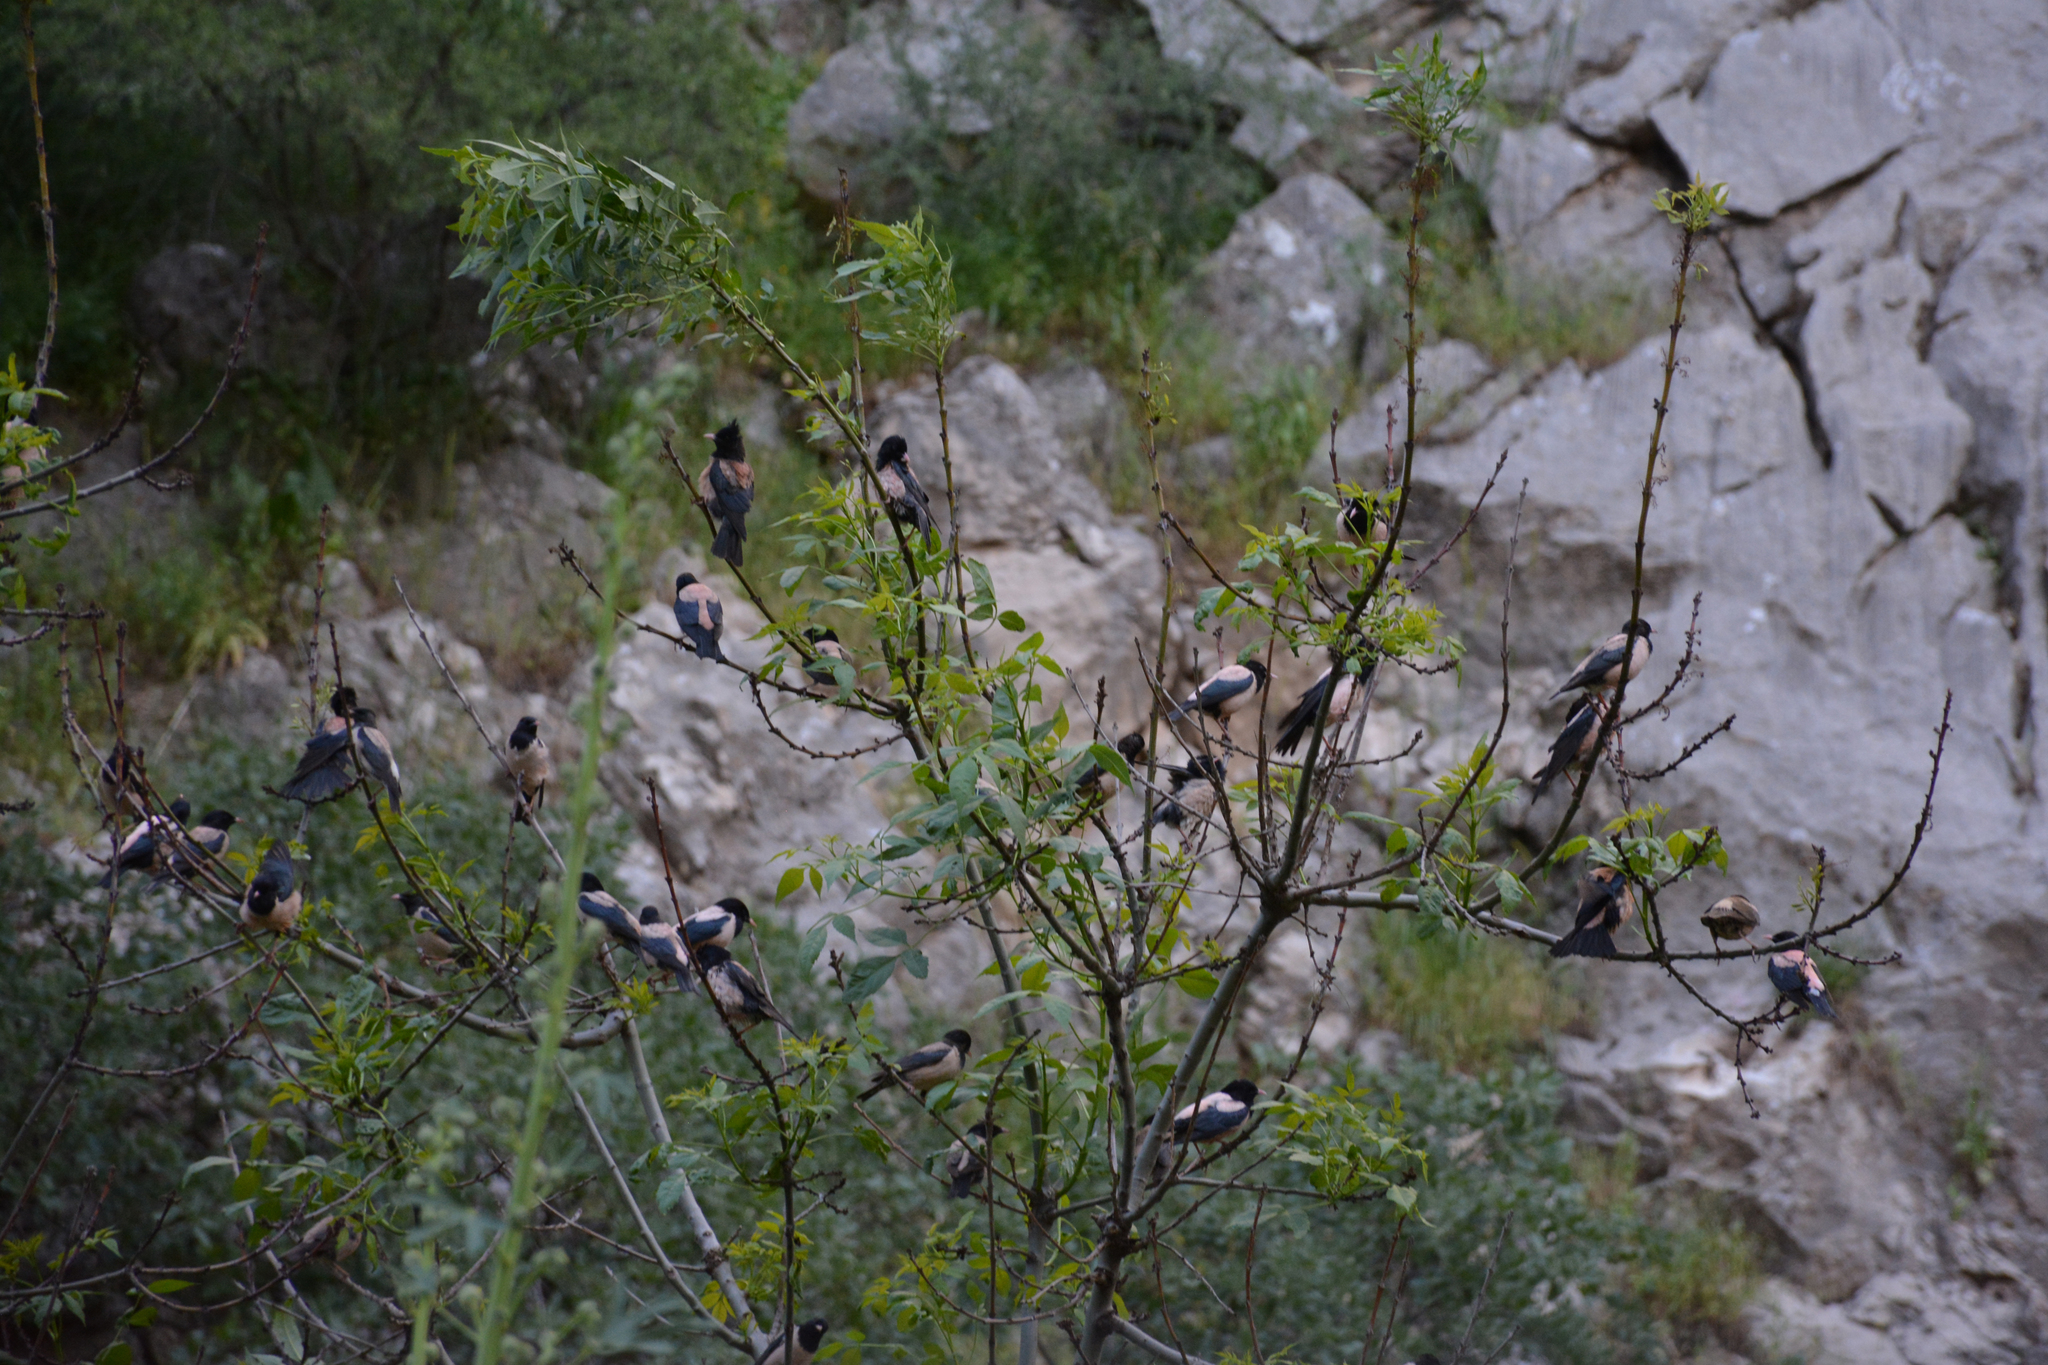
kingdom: Animalia
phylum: Chordata
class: Aves
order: Passeriformes
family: Sturnidae
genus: Pastor
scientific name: Pastor roseus
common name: Rosy starling
